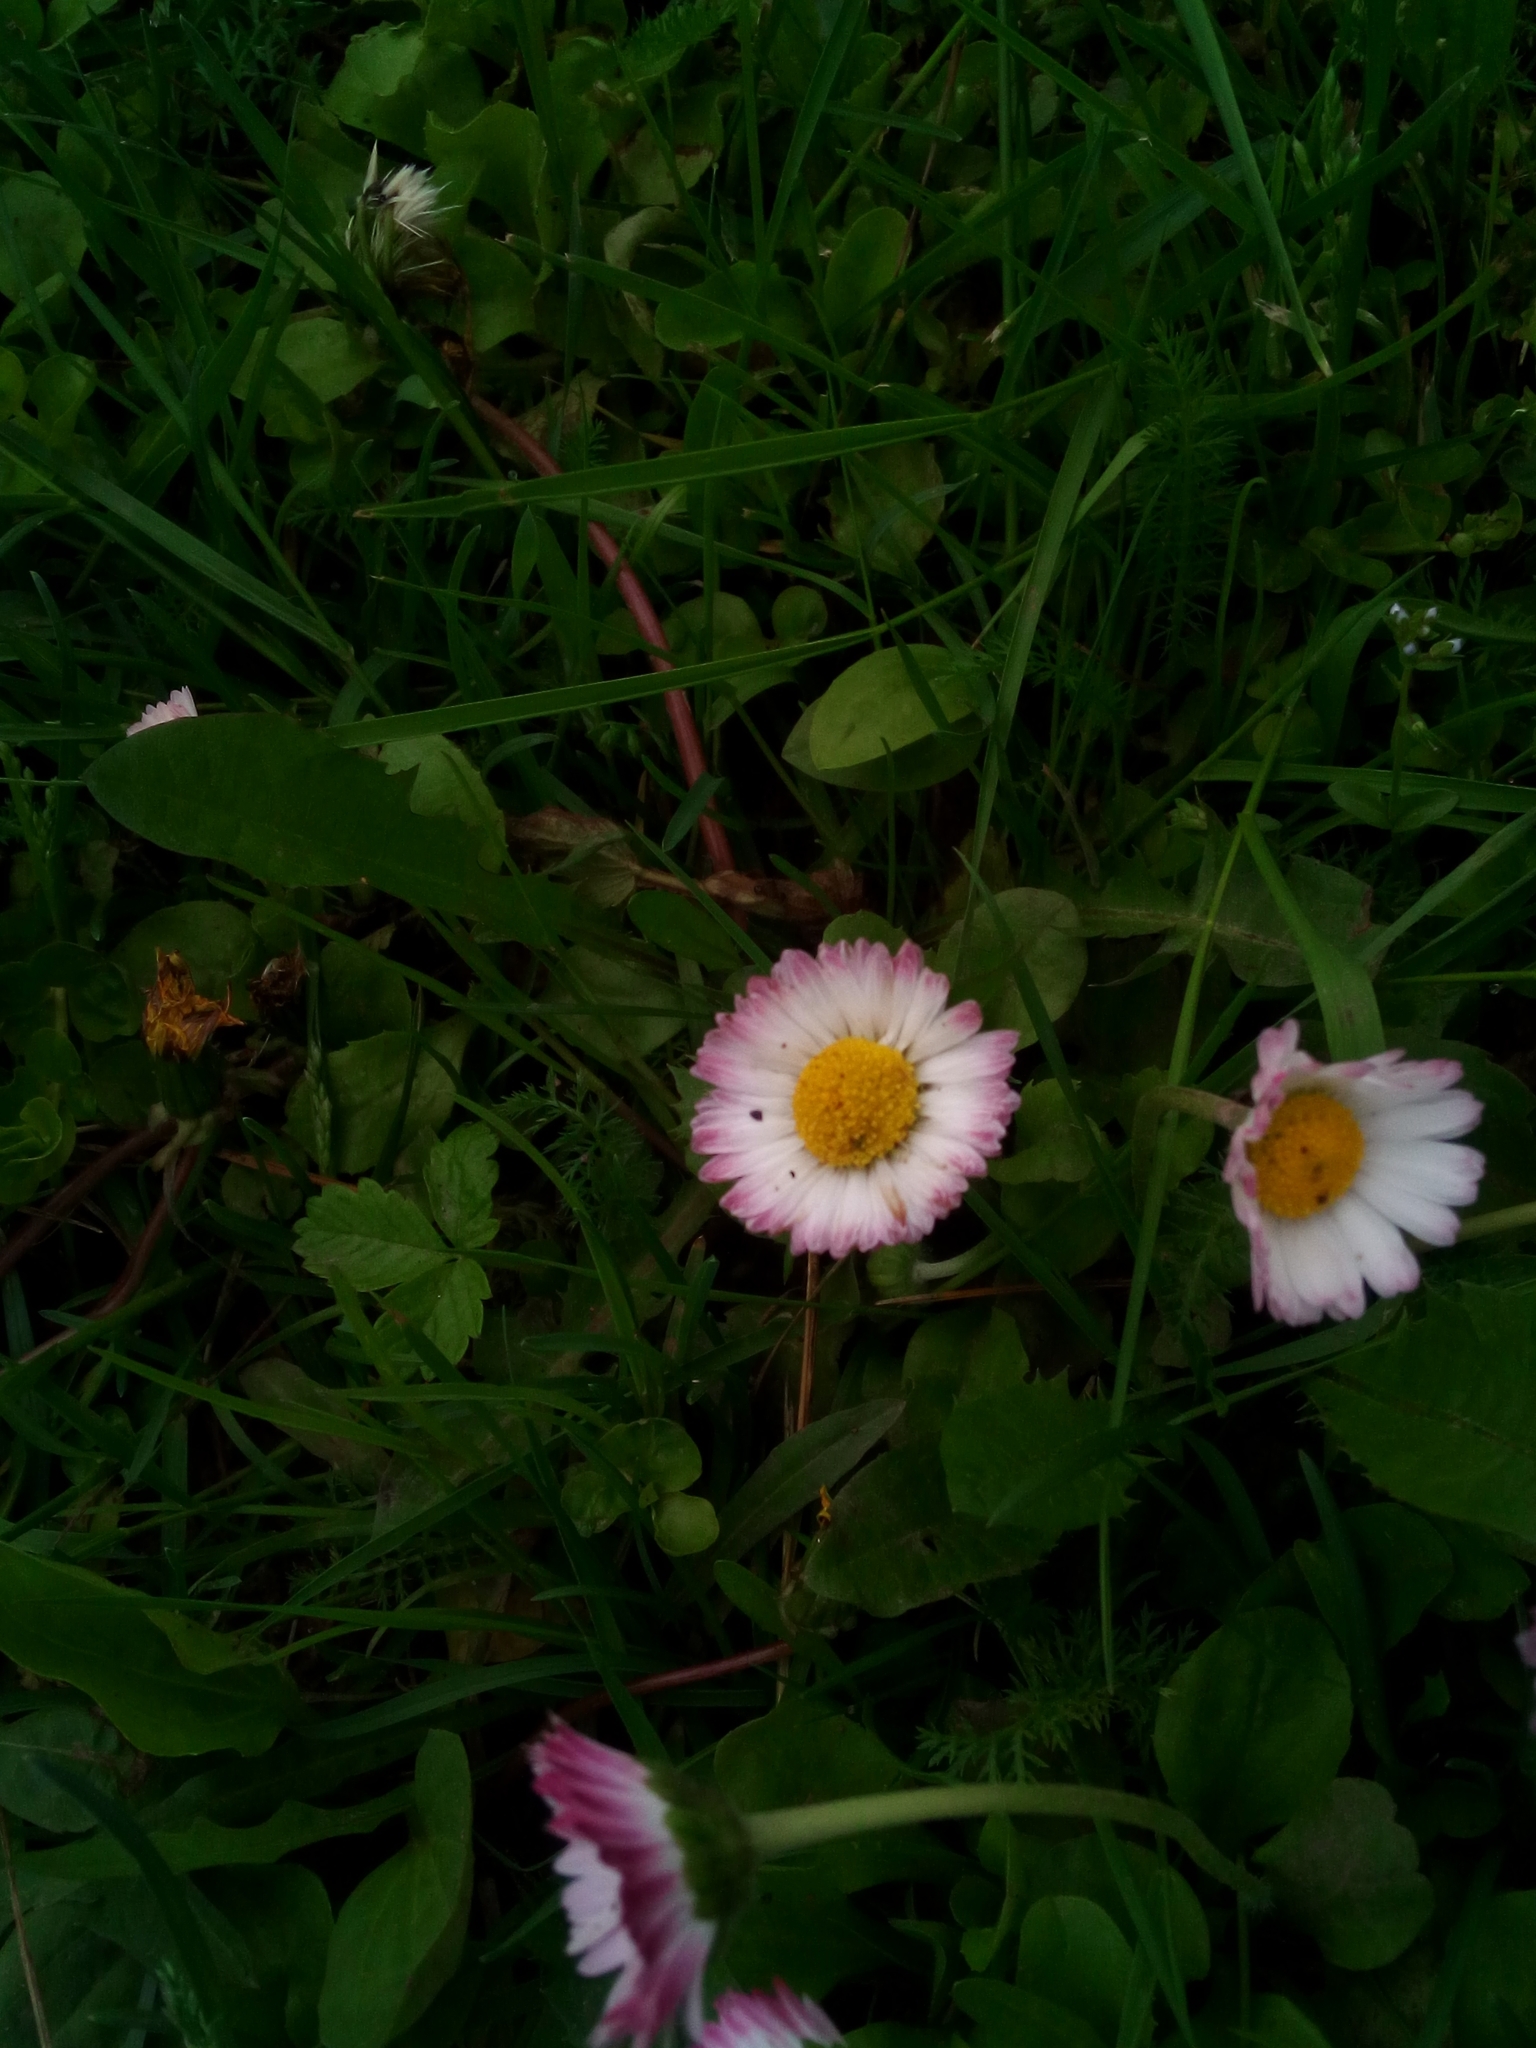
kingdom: Plantae
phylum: Tracheophyta
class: Magnoliopsida
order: Asterales
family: Asteraceae
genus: Bellis
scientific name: Bellis perennis
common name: Lawndaisy
